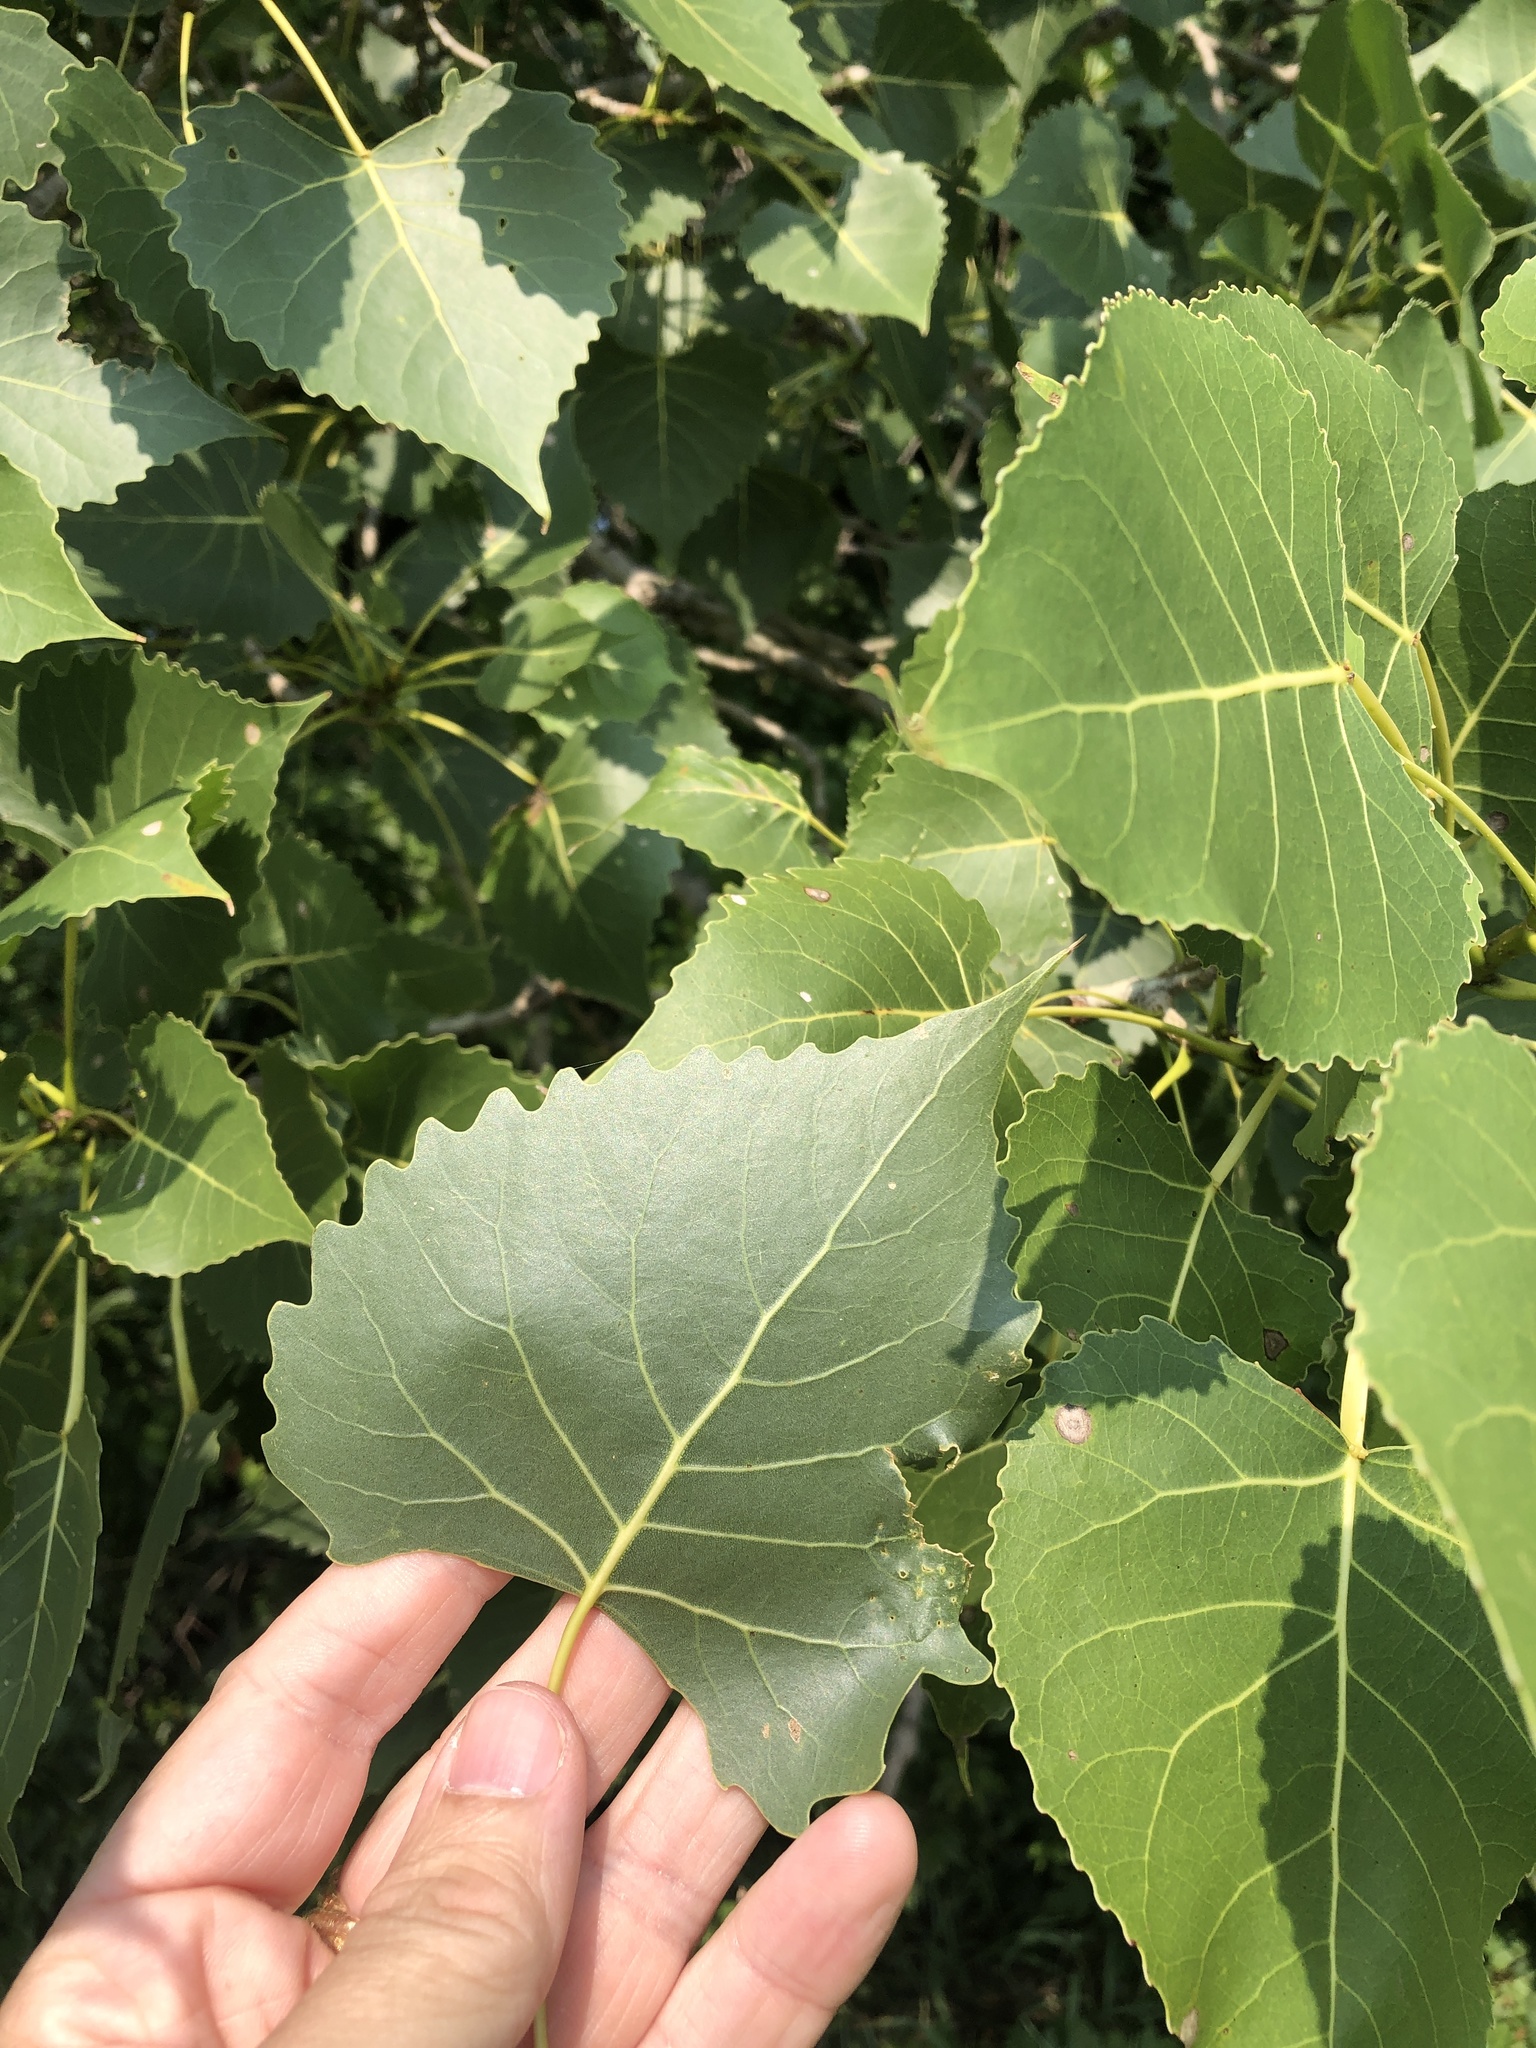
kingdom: Plantae
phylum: Tracheophyta
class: Magnoliopsida
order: Malpighiales
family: Salicaceae
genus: Populus
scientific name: Populus deltoides
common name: Eastern cottonwood
